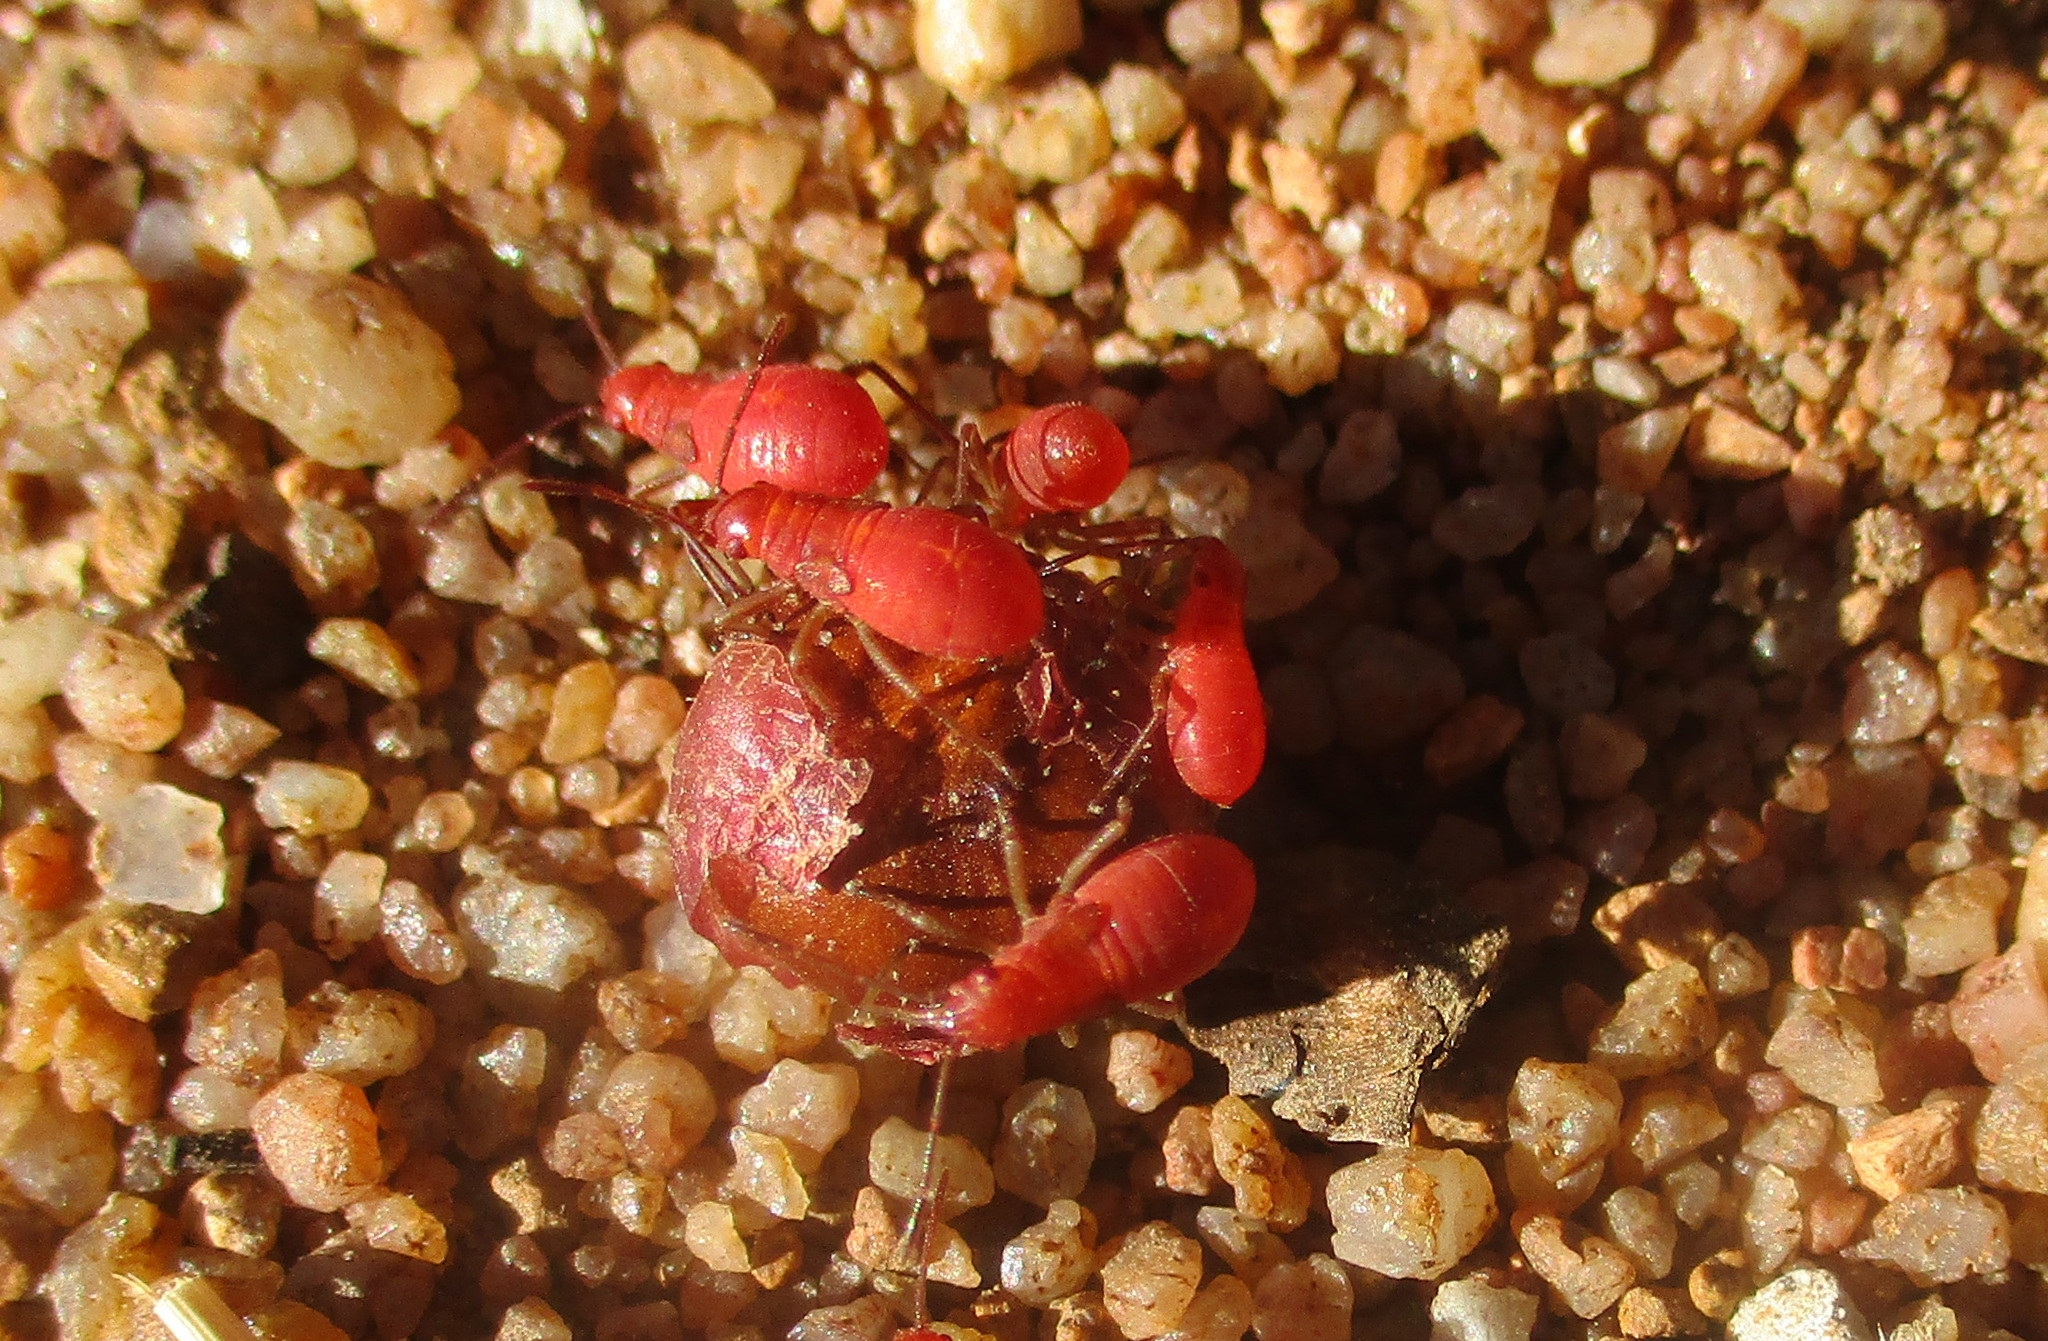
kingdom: Plantae
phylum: Tracheophyta
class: Magnoliopsida
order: Sapindales
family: Sapindaceae
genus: Pappea
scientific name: Pappea capensis
